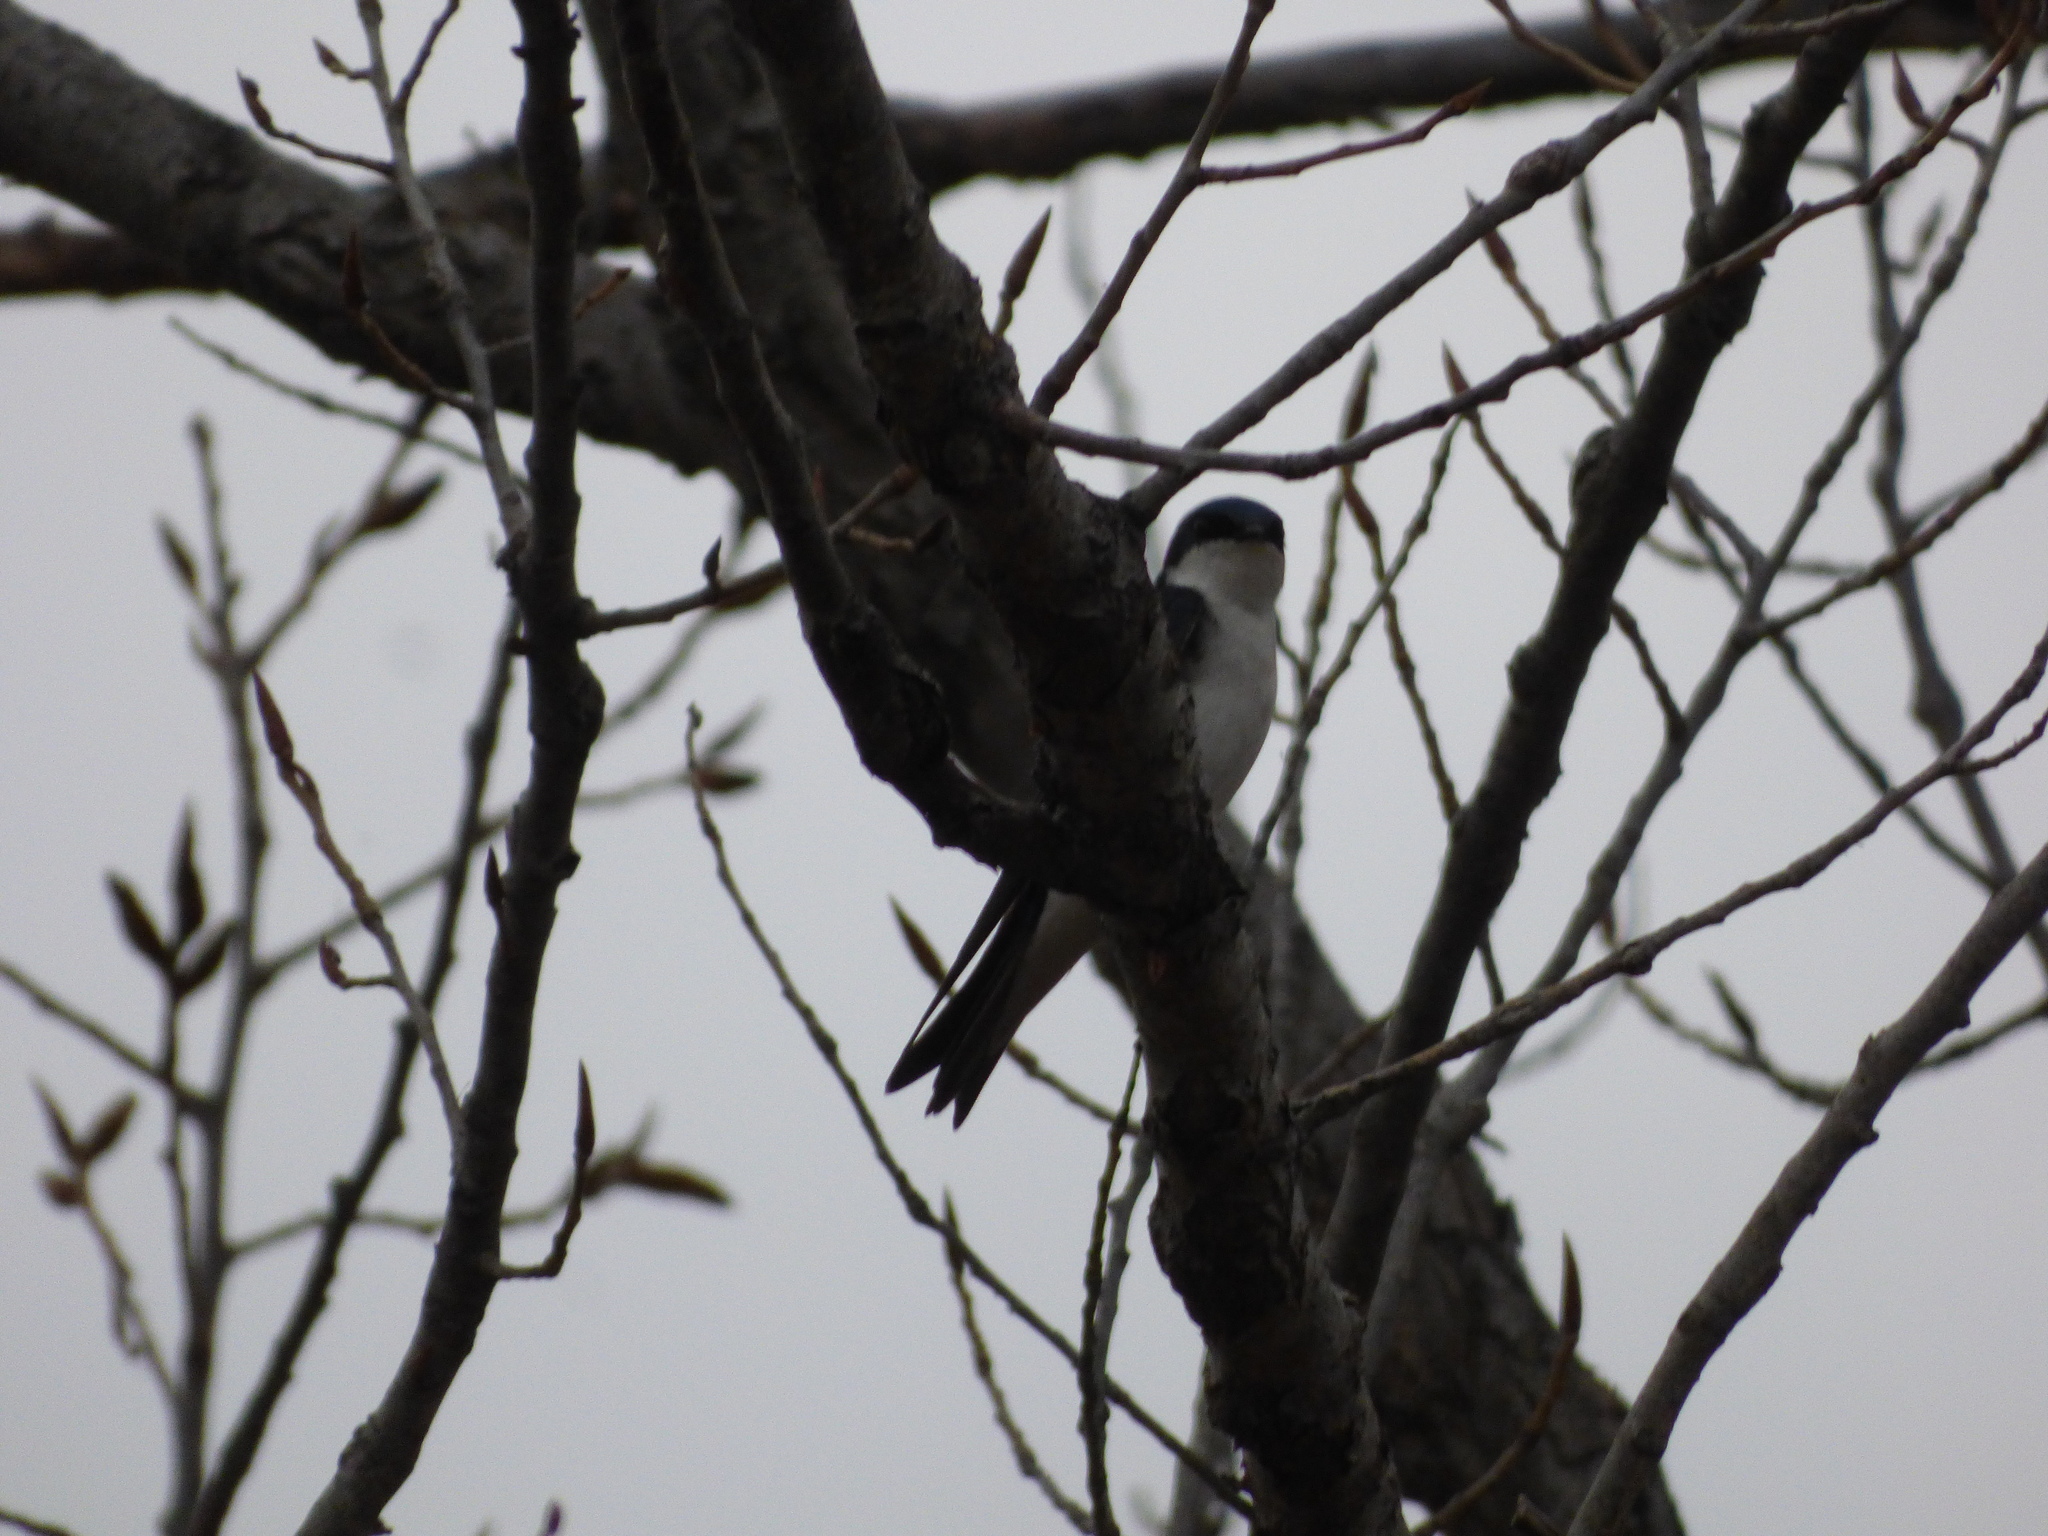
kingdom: Animalia
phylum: Chordata
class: Aves
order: Passeriformes
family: Hirundinidae
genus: Tachycineta
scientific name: Tachycineta bicolor
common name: Tree swallow
